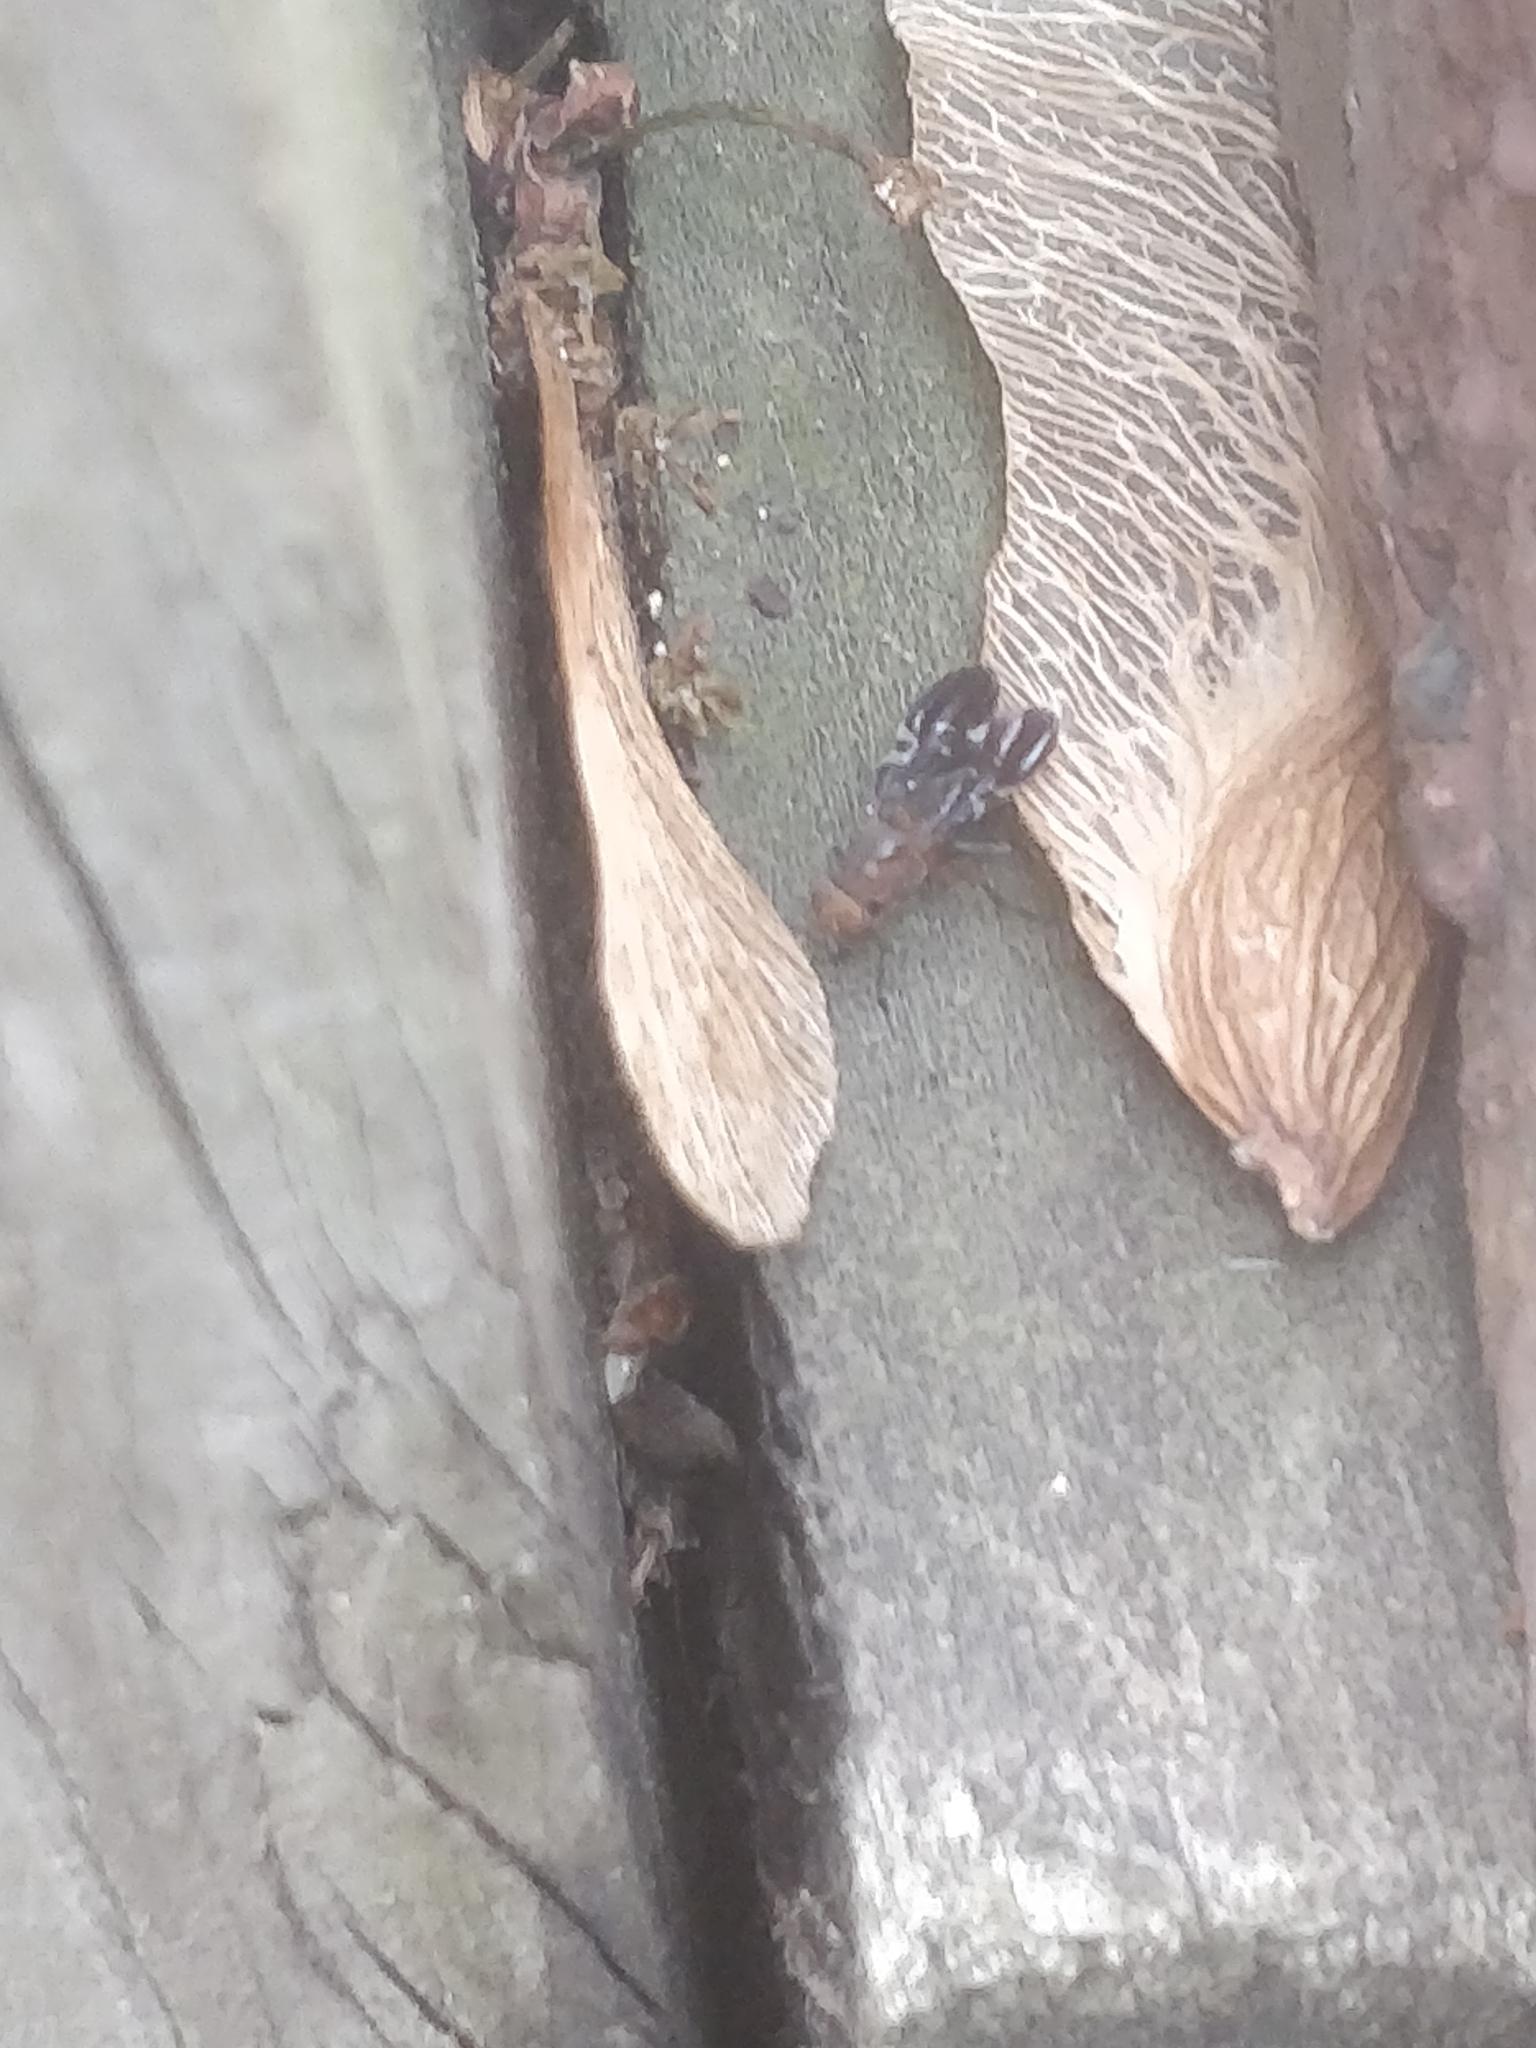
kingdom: Animalia
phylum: Arthropoda
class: Insecta
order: Diptera
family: Ulidiidae
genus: Delphinia
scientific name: Delphinia picta
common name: Common picture-winged fly
